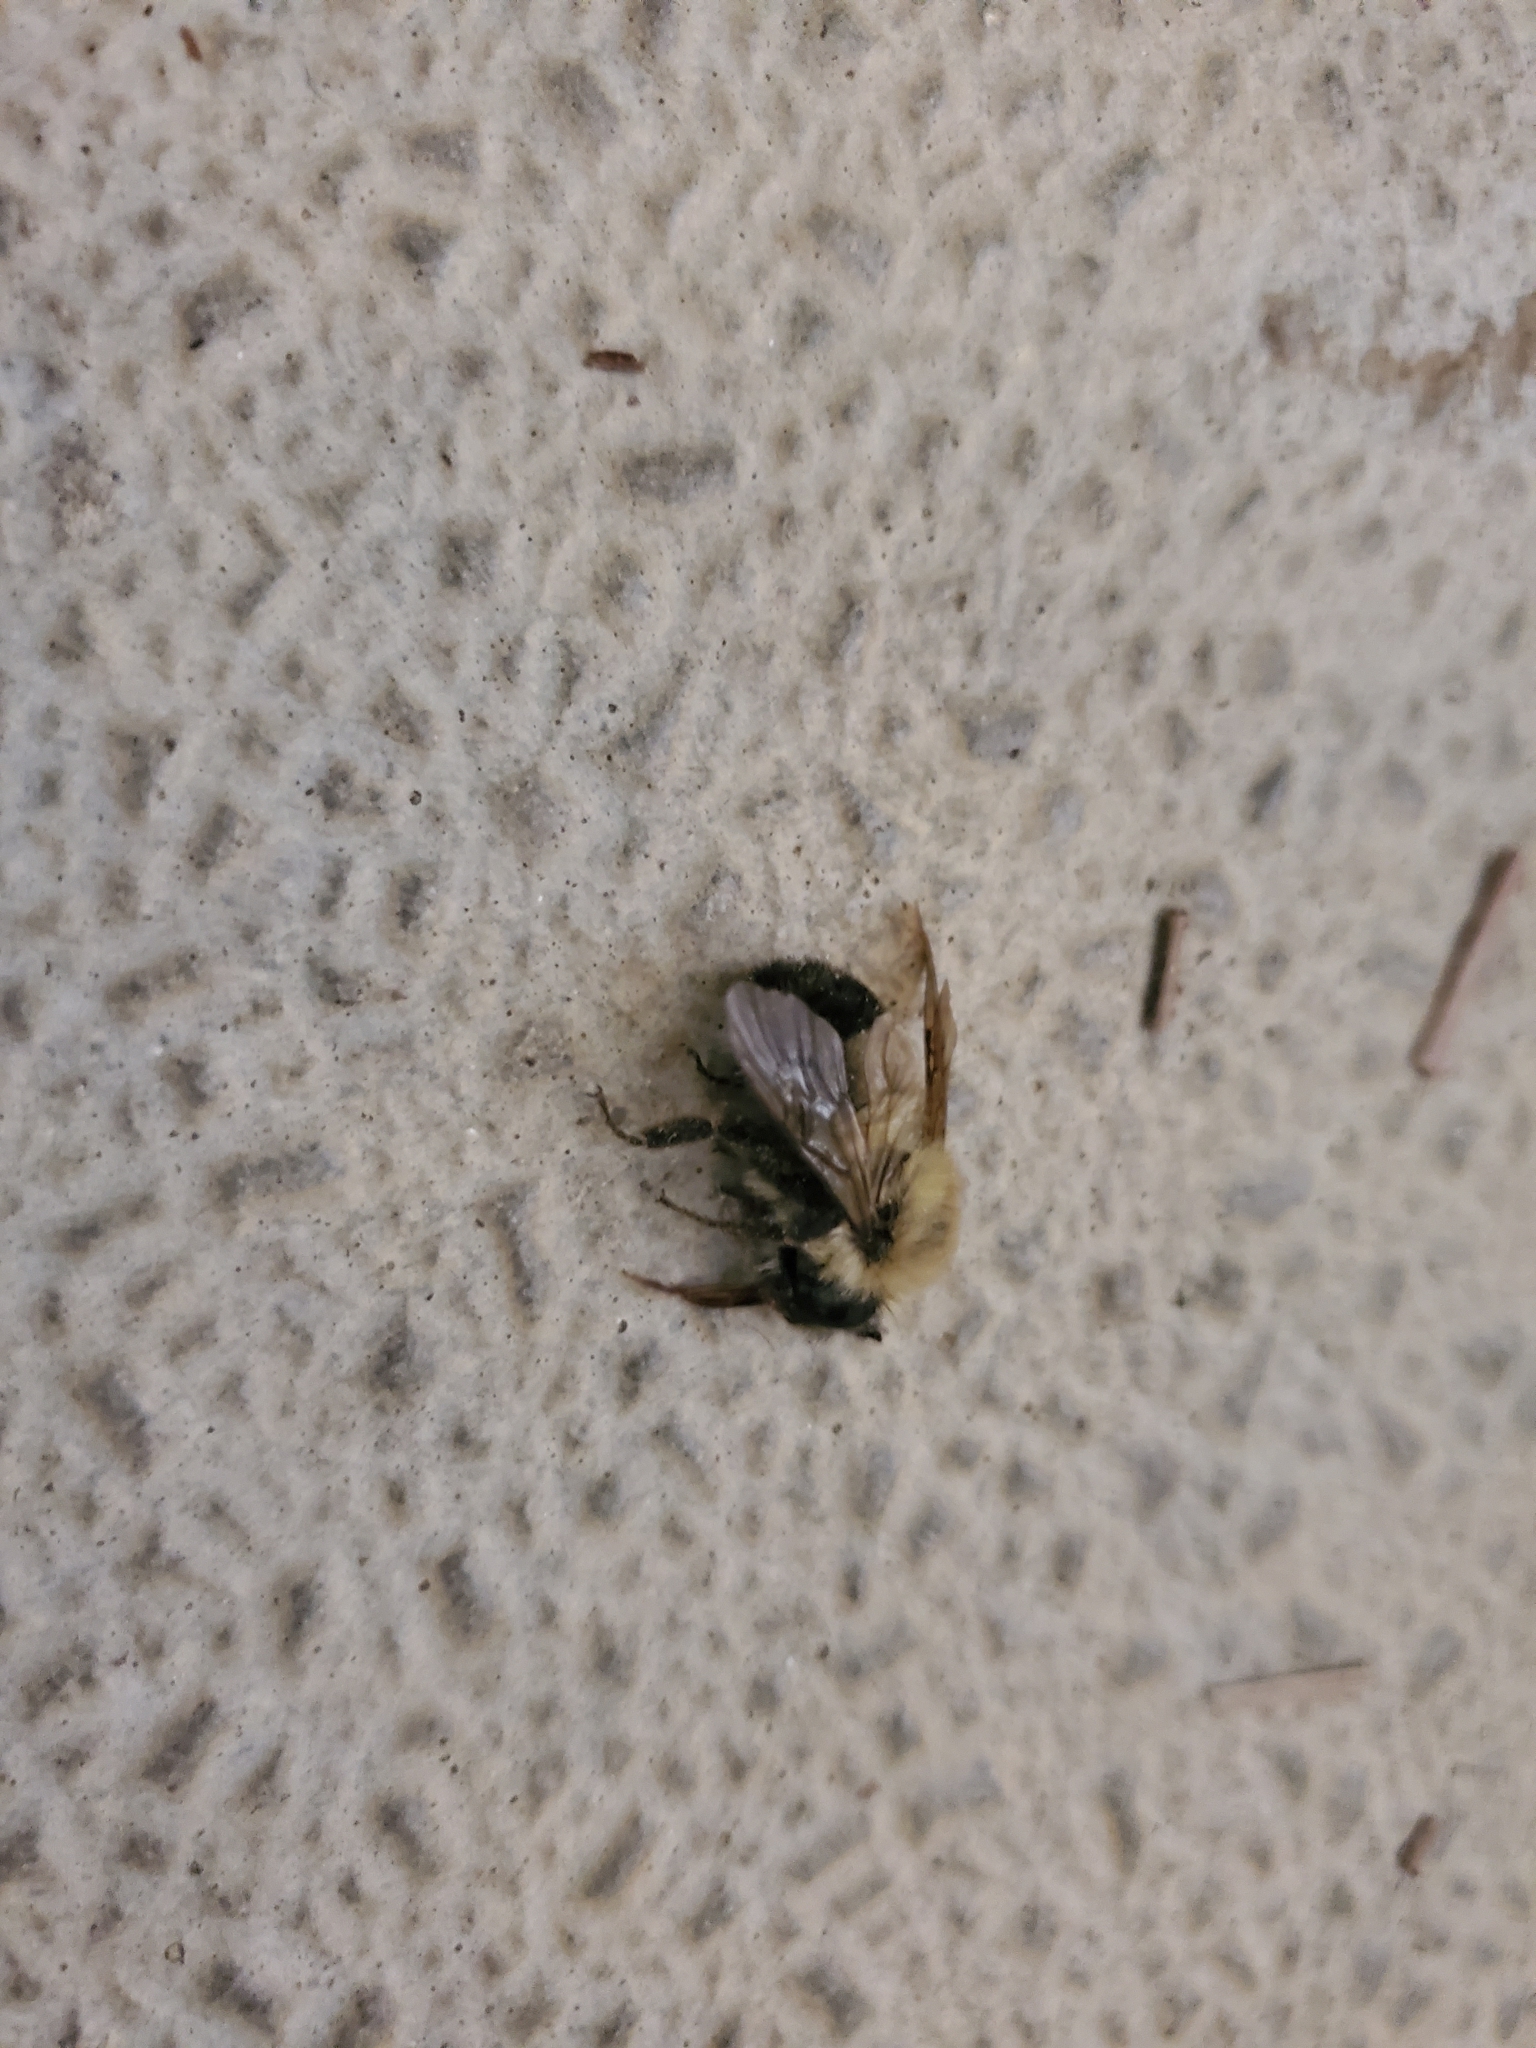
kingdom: Animalia
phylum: Arthropoda
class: Insecta
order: Hymenoptera
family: Apidae
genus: Bombus
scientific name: Bombus bimaculatus
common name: Two-spotted bumble bee
